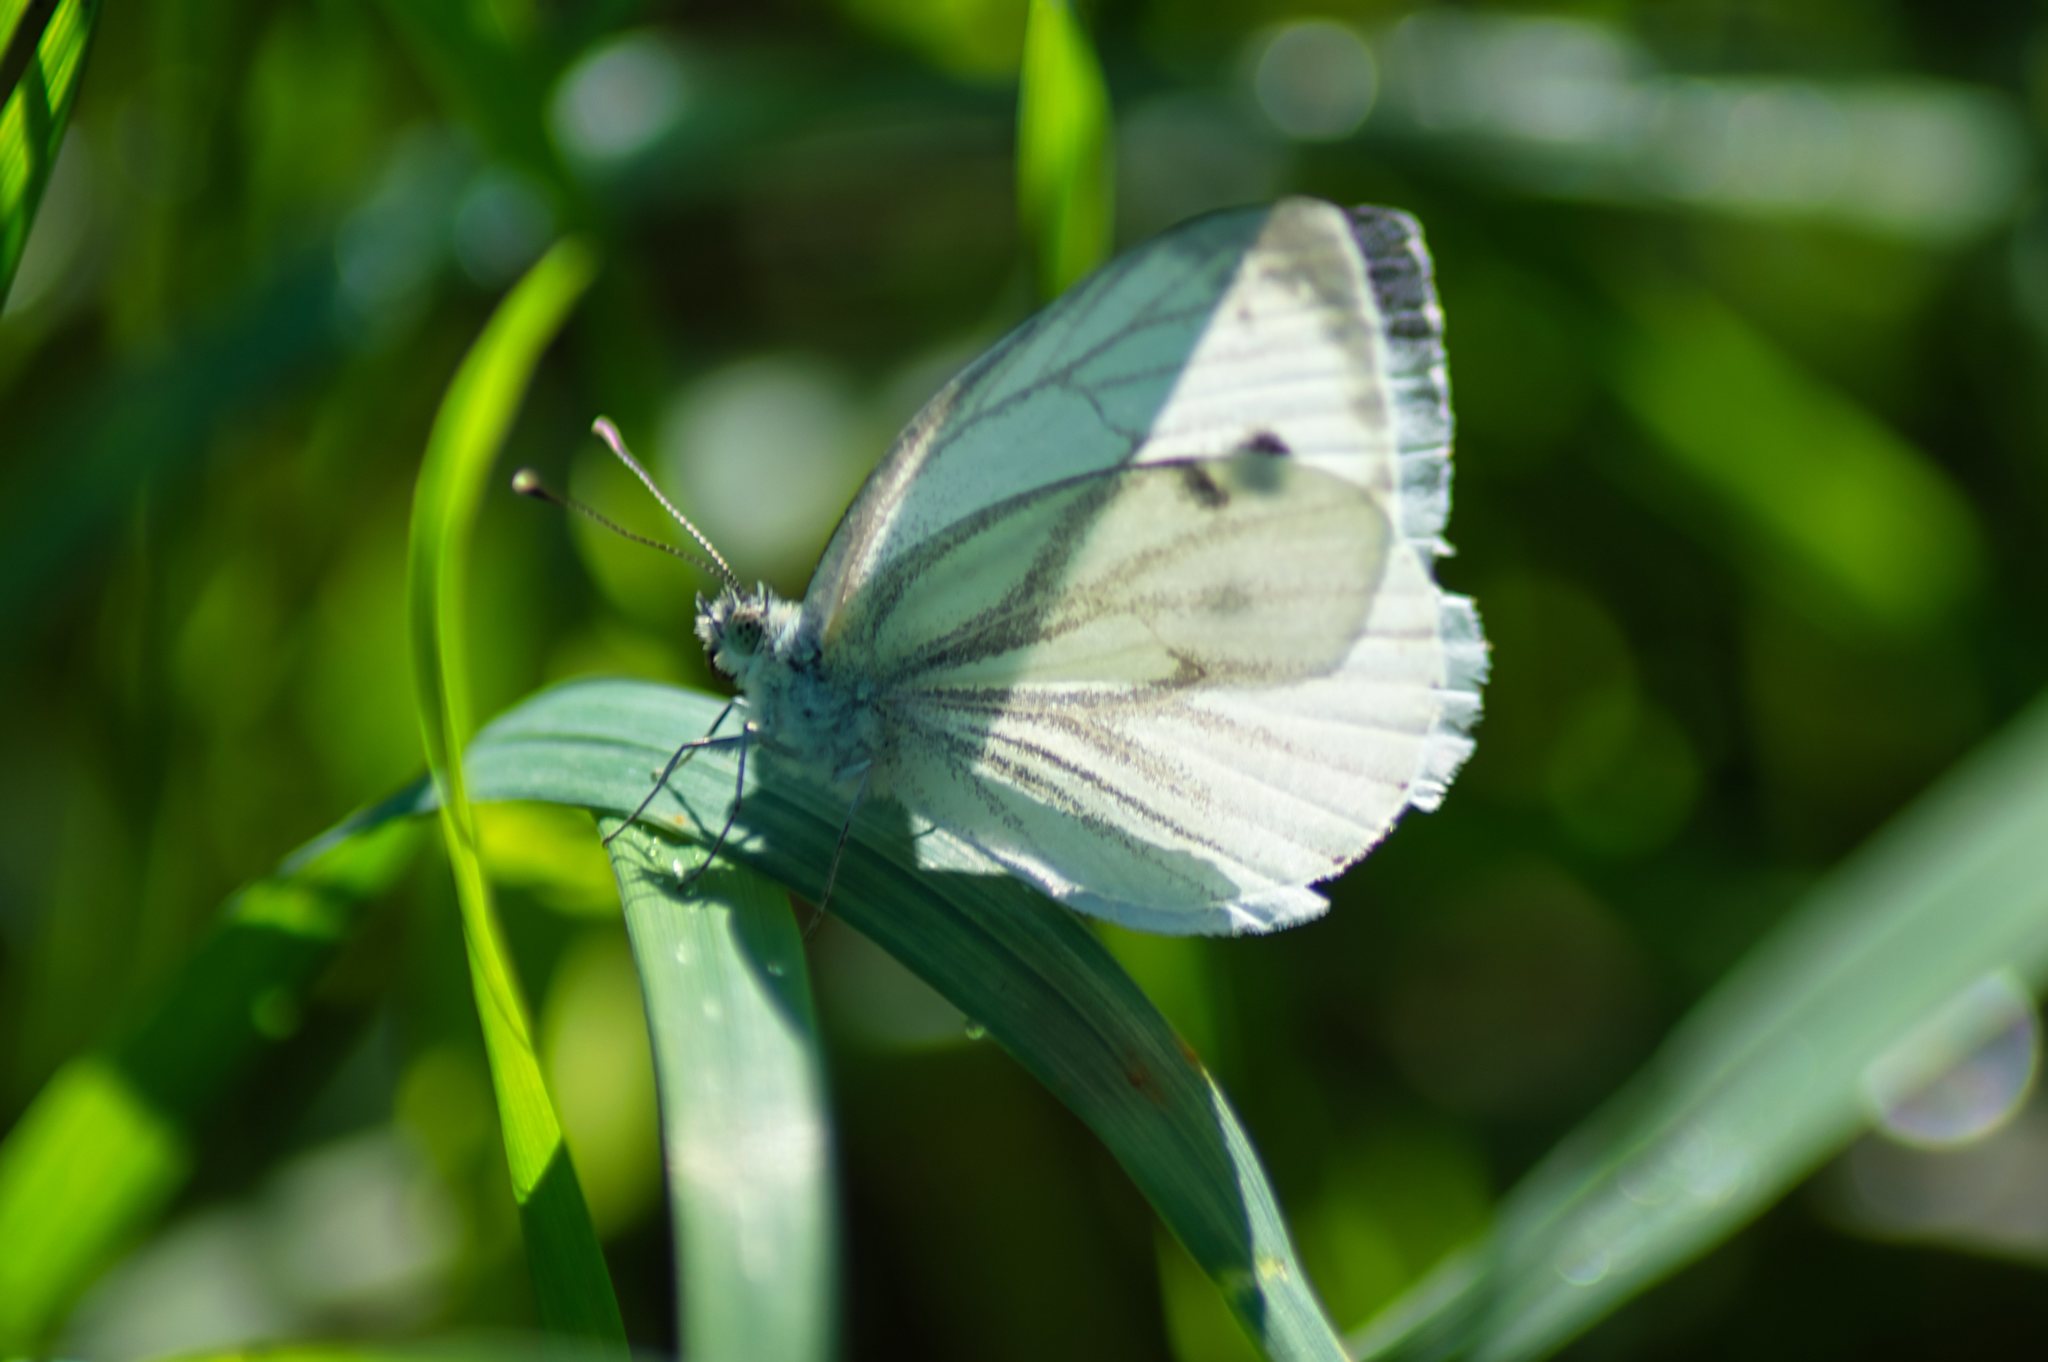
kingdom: Animalia
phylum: Arthropoda
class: Insecta
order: Lepidoptera
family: Pieridae
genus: Pieris
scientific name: Pieris napi
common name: Green-veined white
